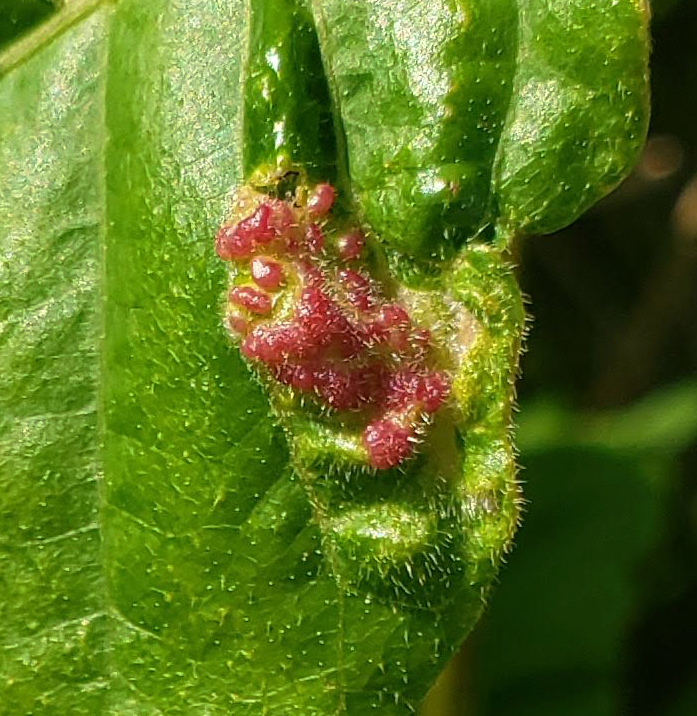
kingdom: Animalia
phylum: Arthropoda
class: Arachnida
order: Trombidiformes
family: Eriophyidae
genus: Aculops
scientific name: Aculops
